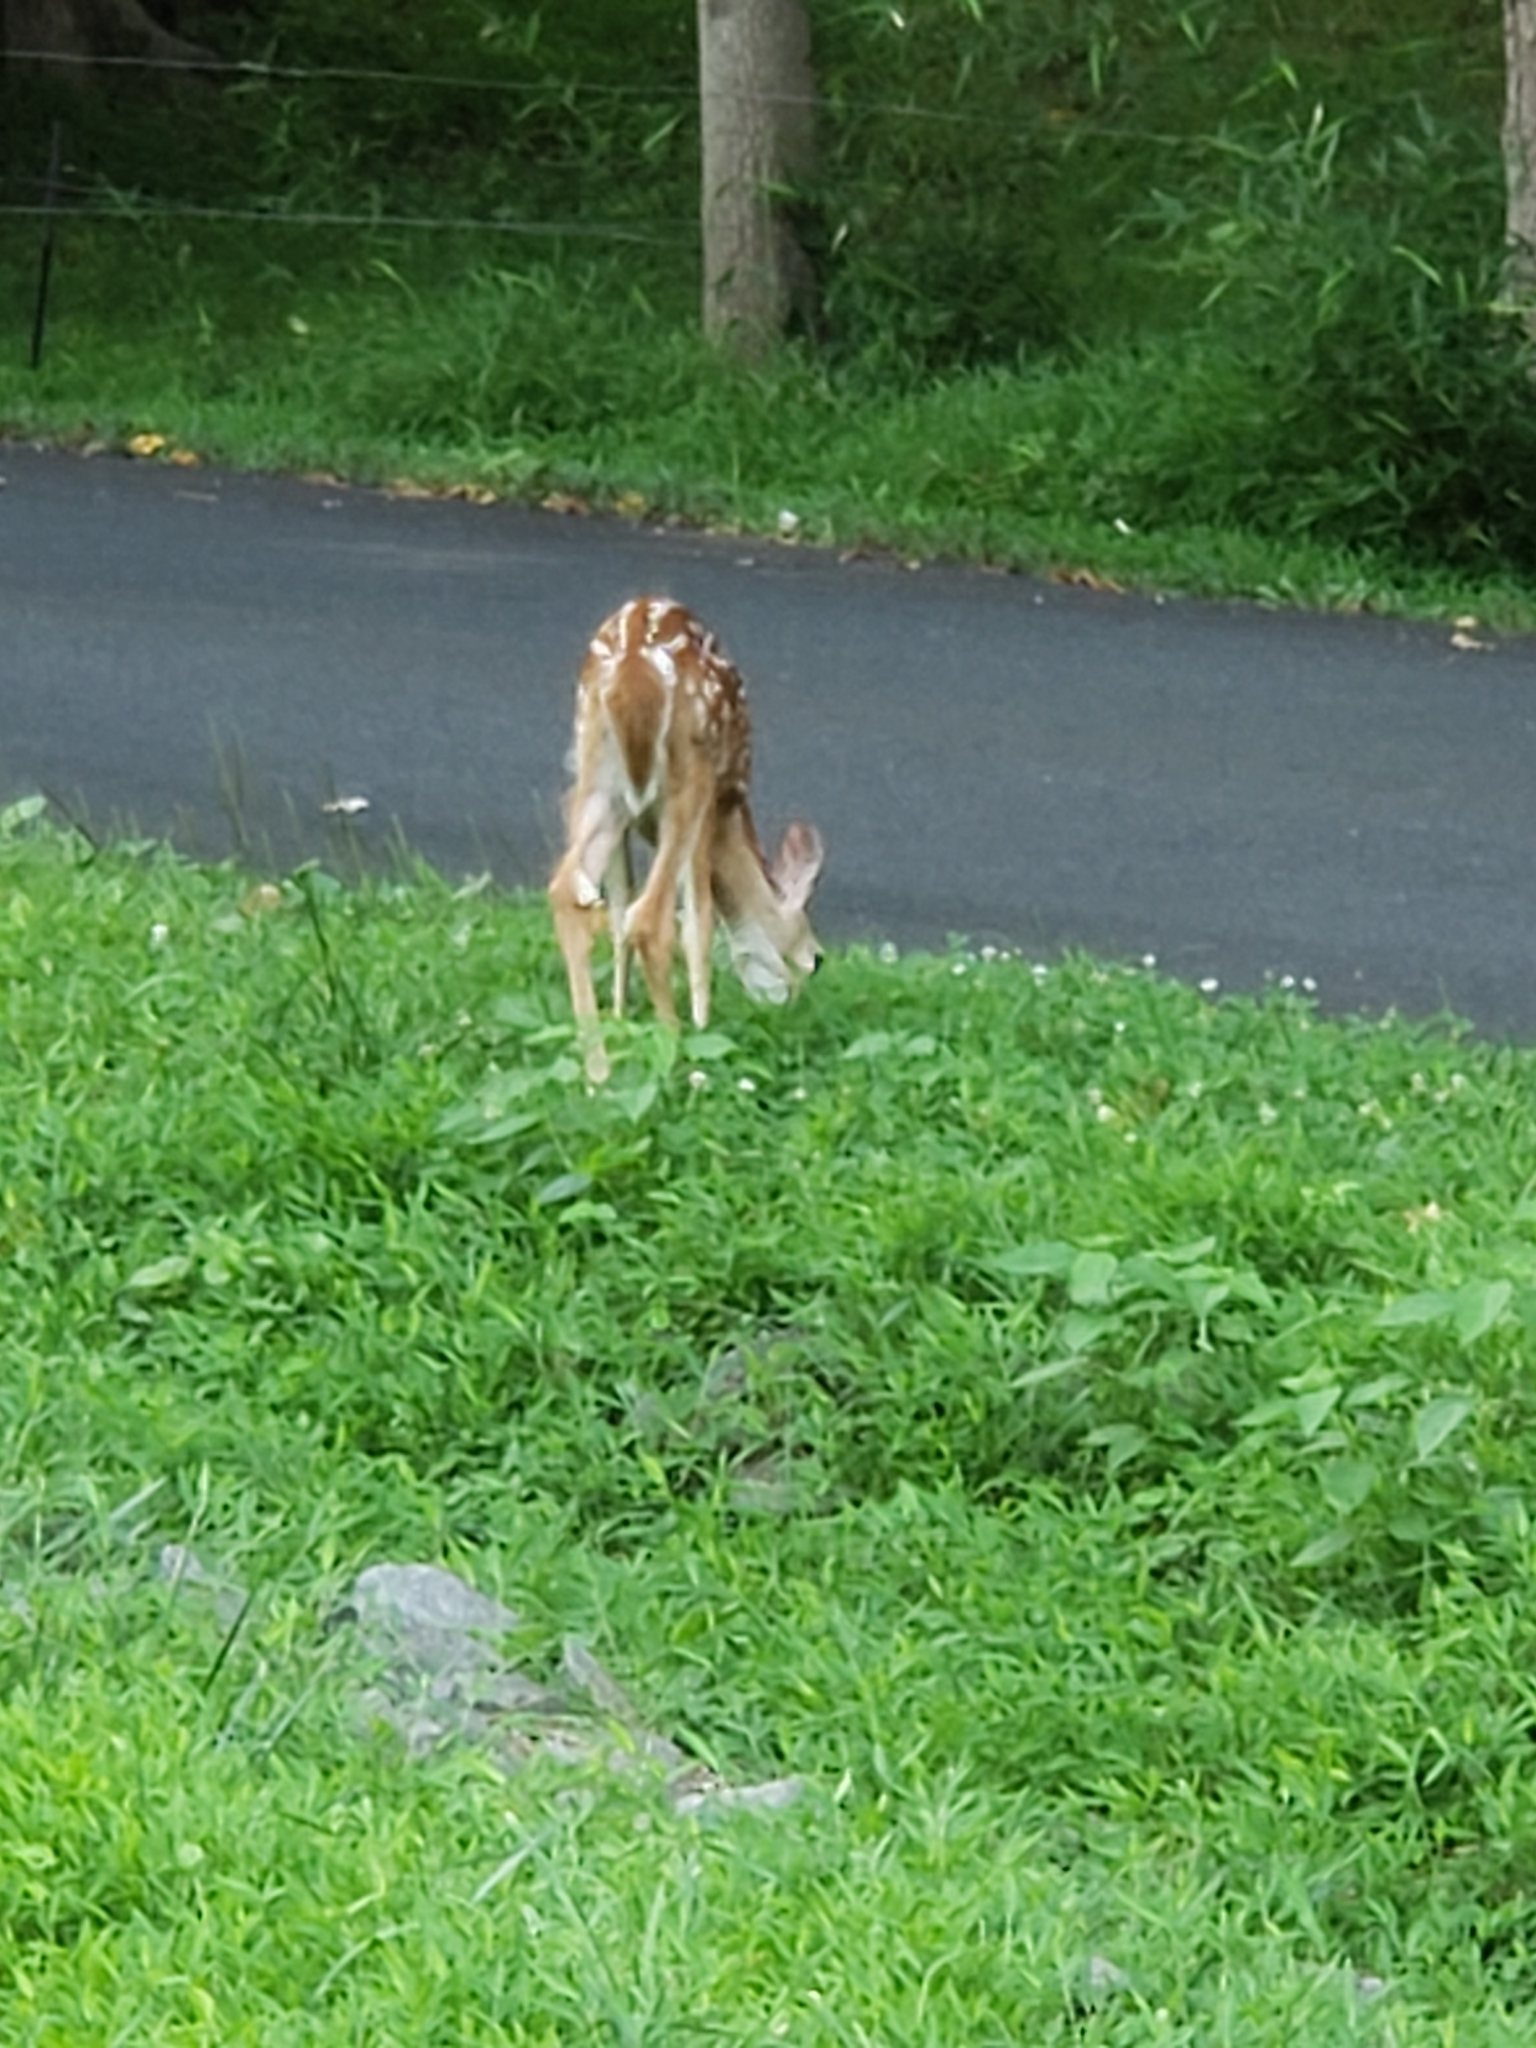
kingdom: Animalia
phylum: Chordata
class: Mammalia
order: Artiodactyla
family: Cervidae
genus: Odocoileus
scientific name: Odocoileus virginianus
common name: White-tailed deer
